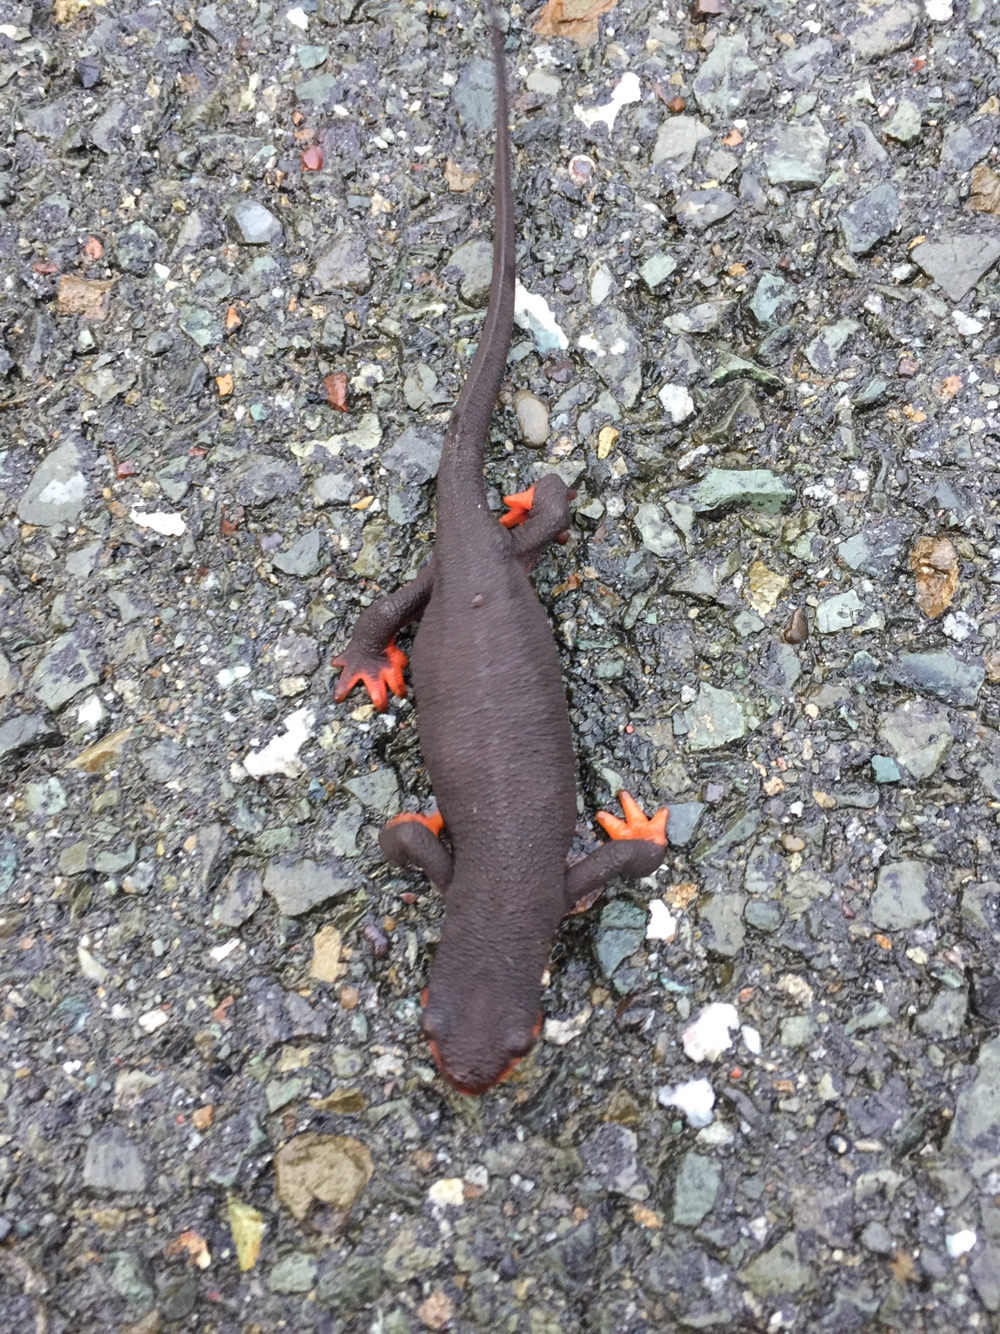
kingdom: Animalia
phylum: Chordata
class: Amphibia
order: Caudata
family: Salamandridae
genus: Taricha
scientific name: Taricha rivularis
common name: Red-bellied newt
